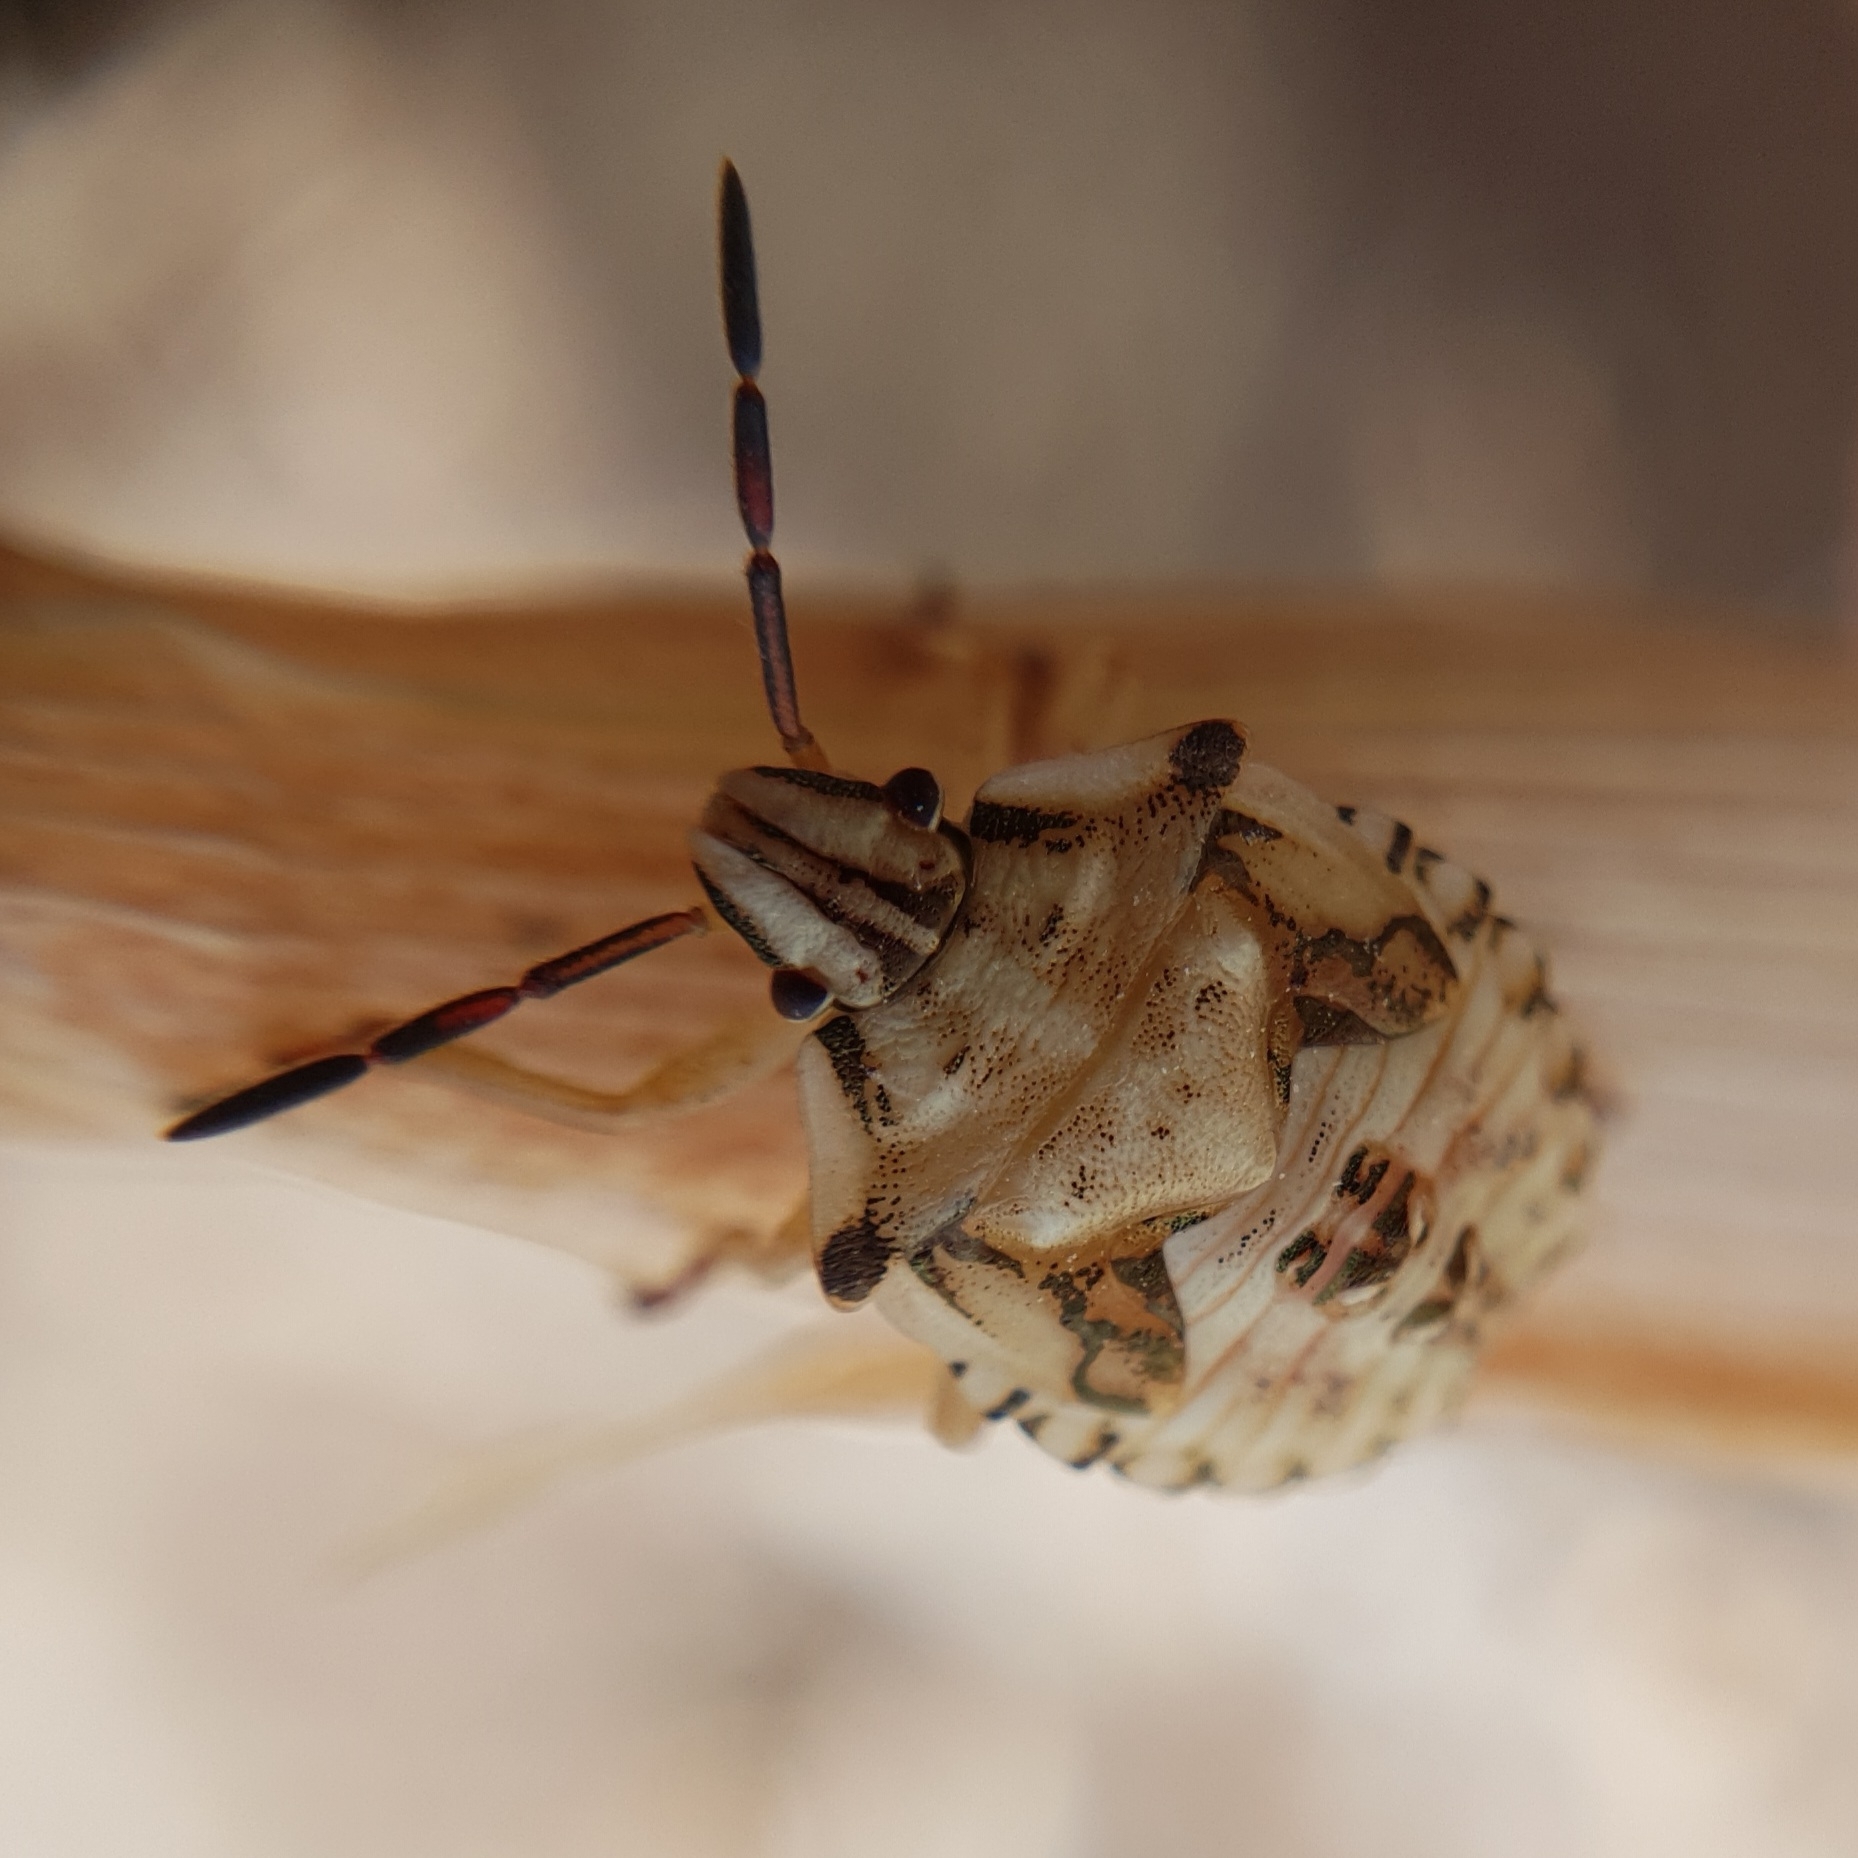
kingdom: Animalia
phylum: Arthropoda
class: Insecta
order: Hemiptera
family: Pentatomidae
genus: Carpocoris
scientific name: Carpocoris mediterraneus
